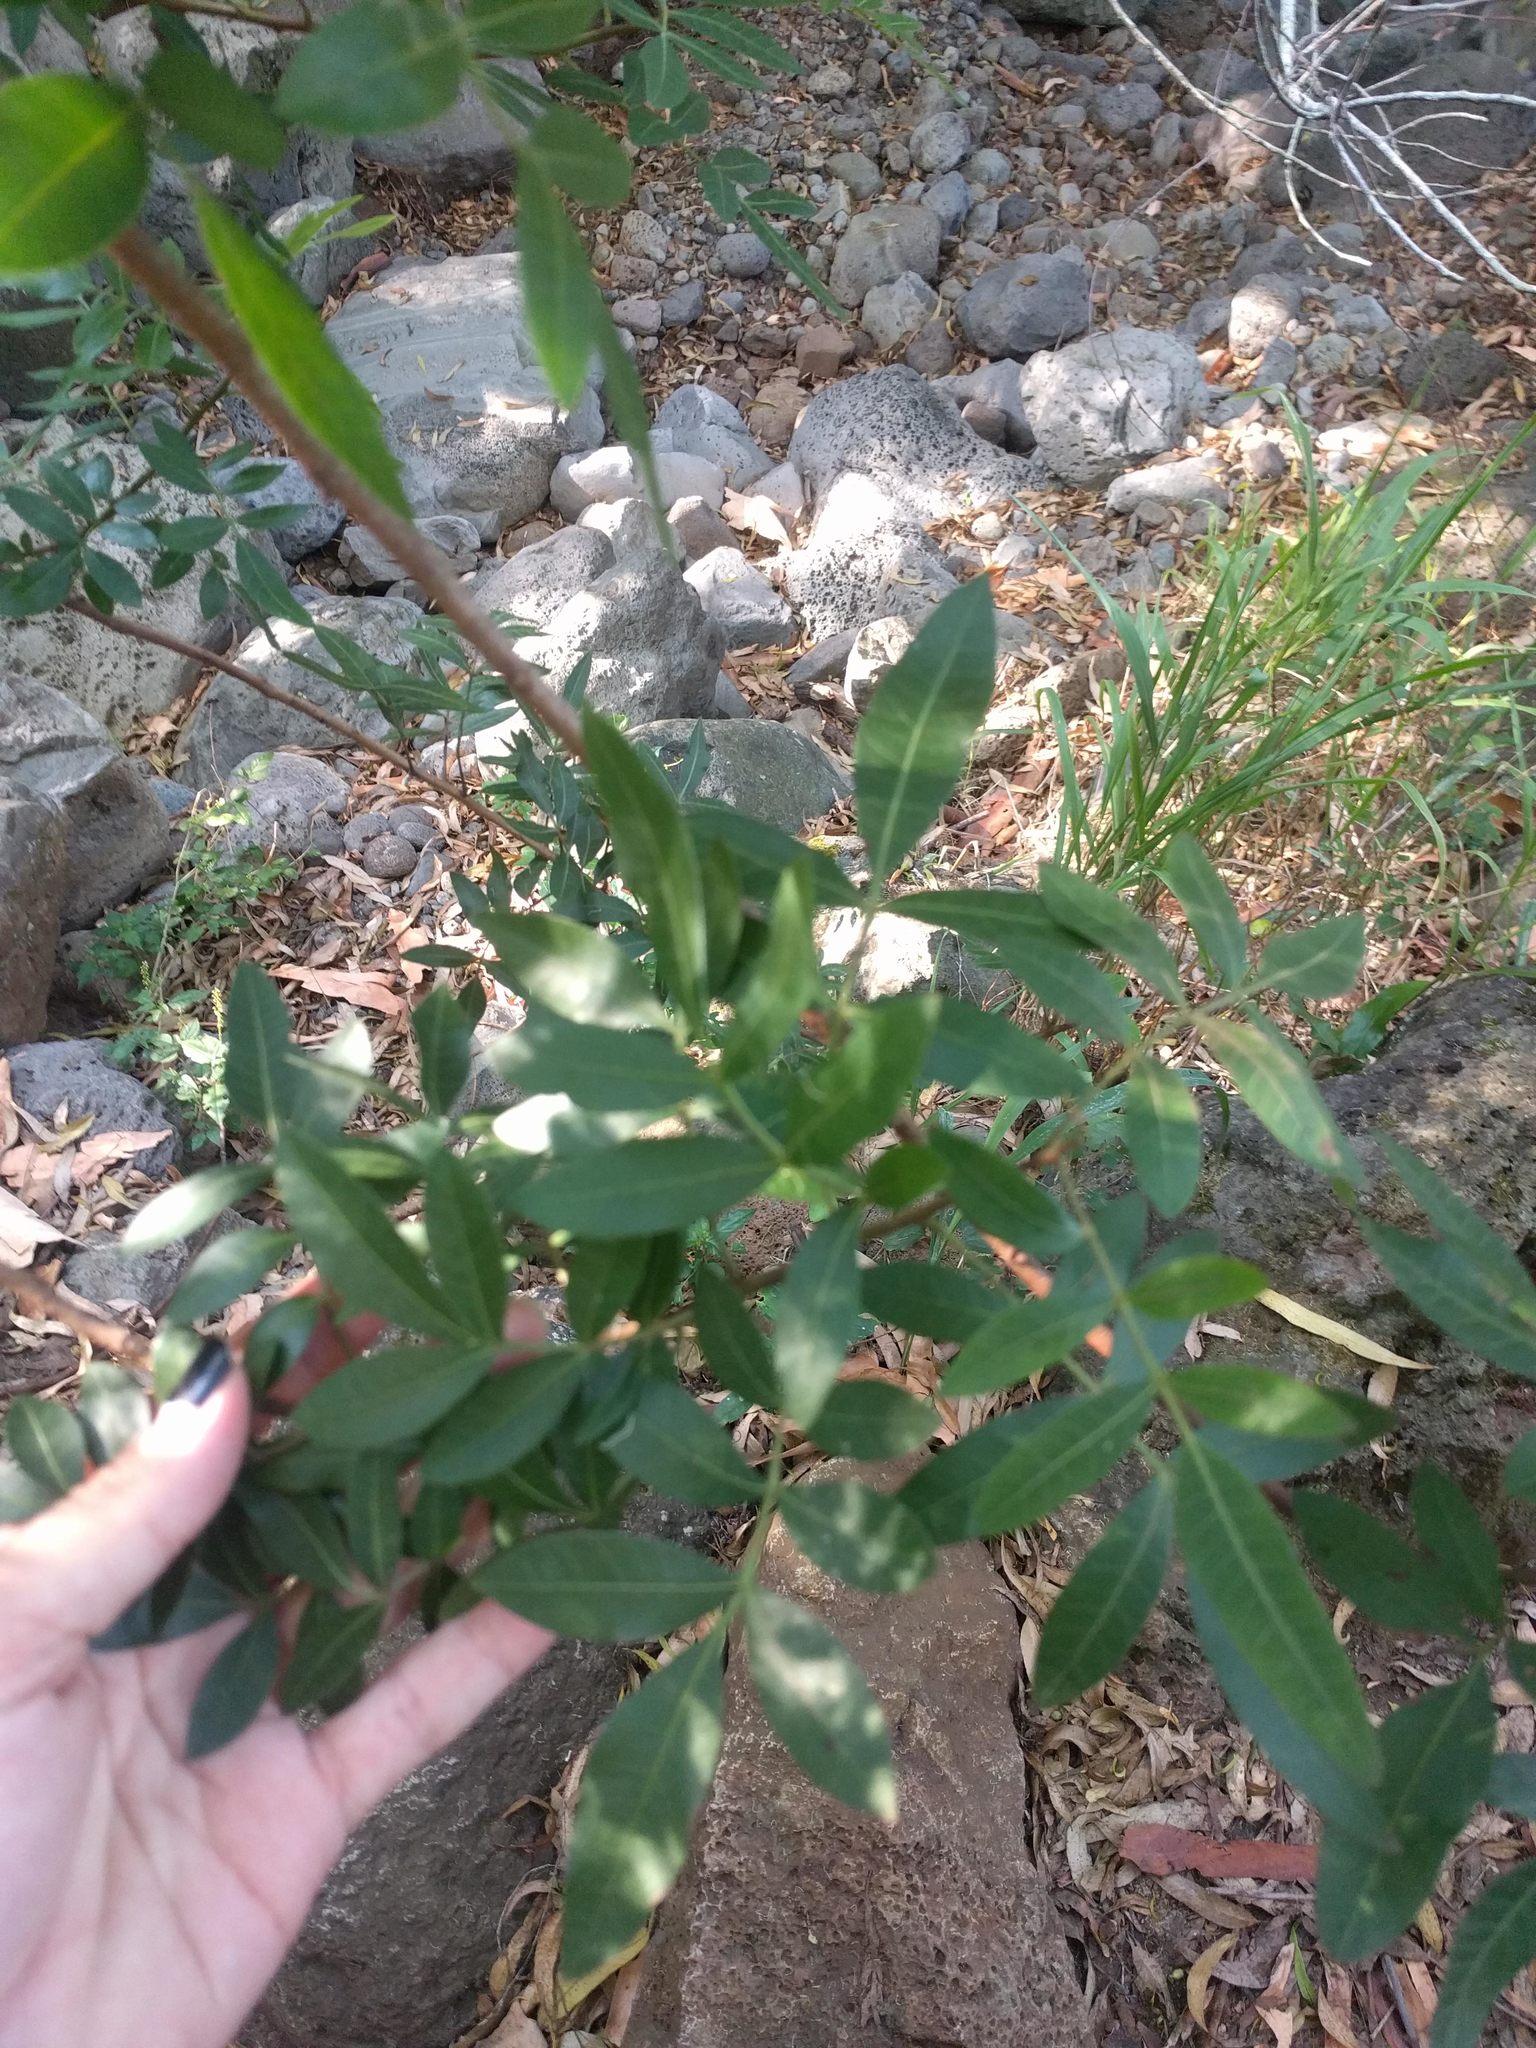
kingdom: Plantae
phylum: Tracheophyta
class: Magnoliopsida
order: Sapindales
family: Anacardiaceae
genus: Schinus
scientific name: Schinus terebinthifolia
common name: Brazilian peppertree
